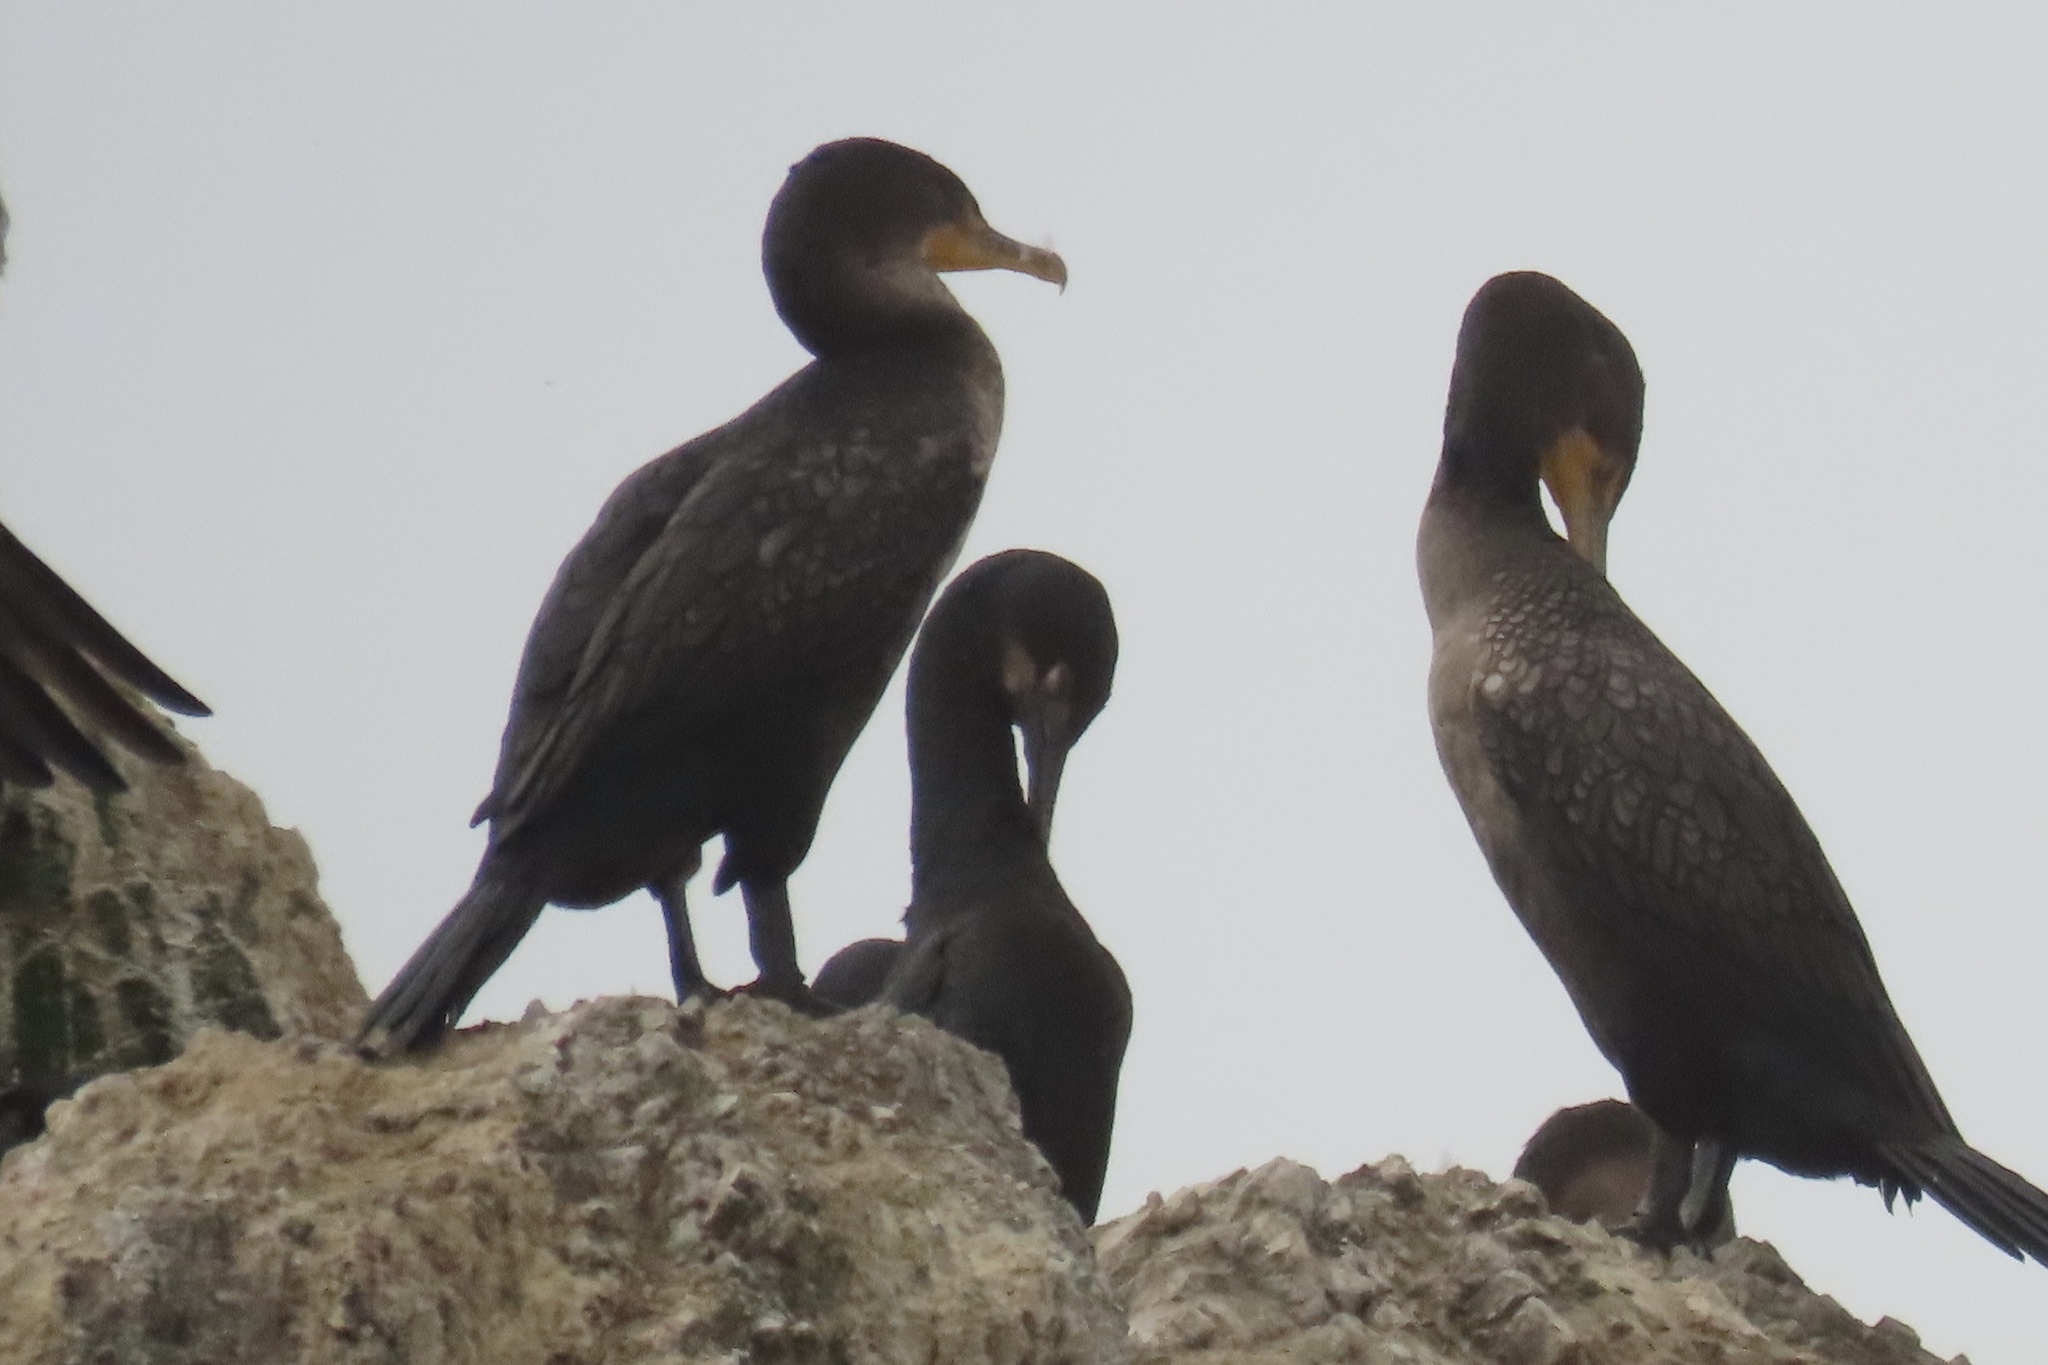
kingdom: Animalia
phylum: Chordata
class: Aves
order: Suliformes
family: Phalacrocoracidae
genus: Phalacrocorax
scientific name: Phalacrocorax auritus
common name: Double-crested cormorant
